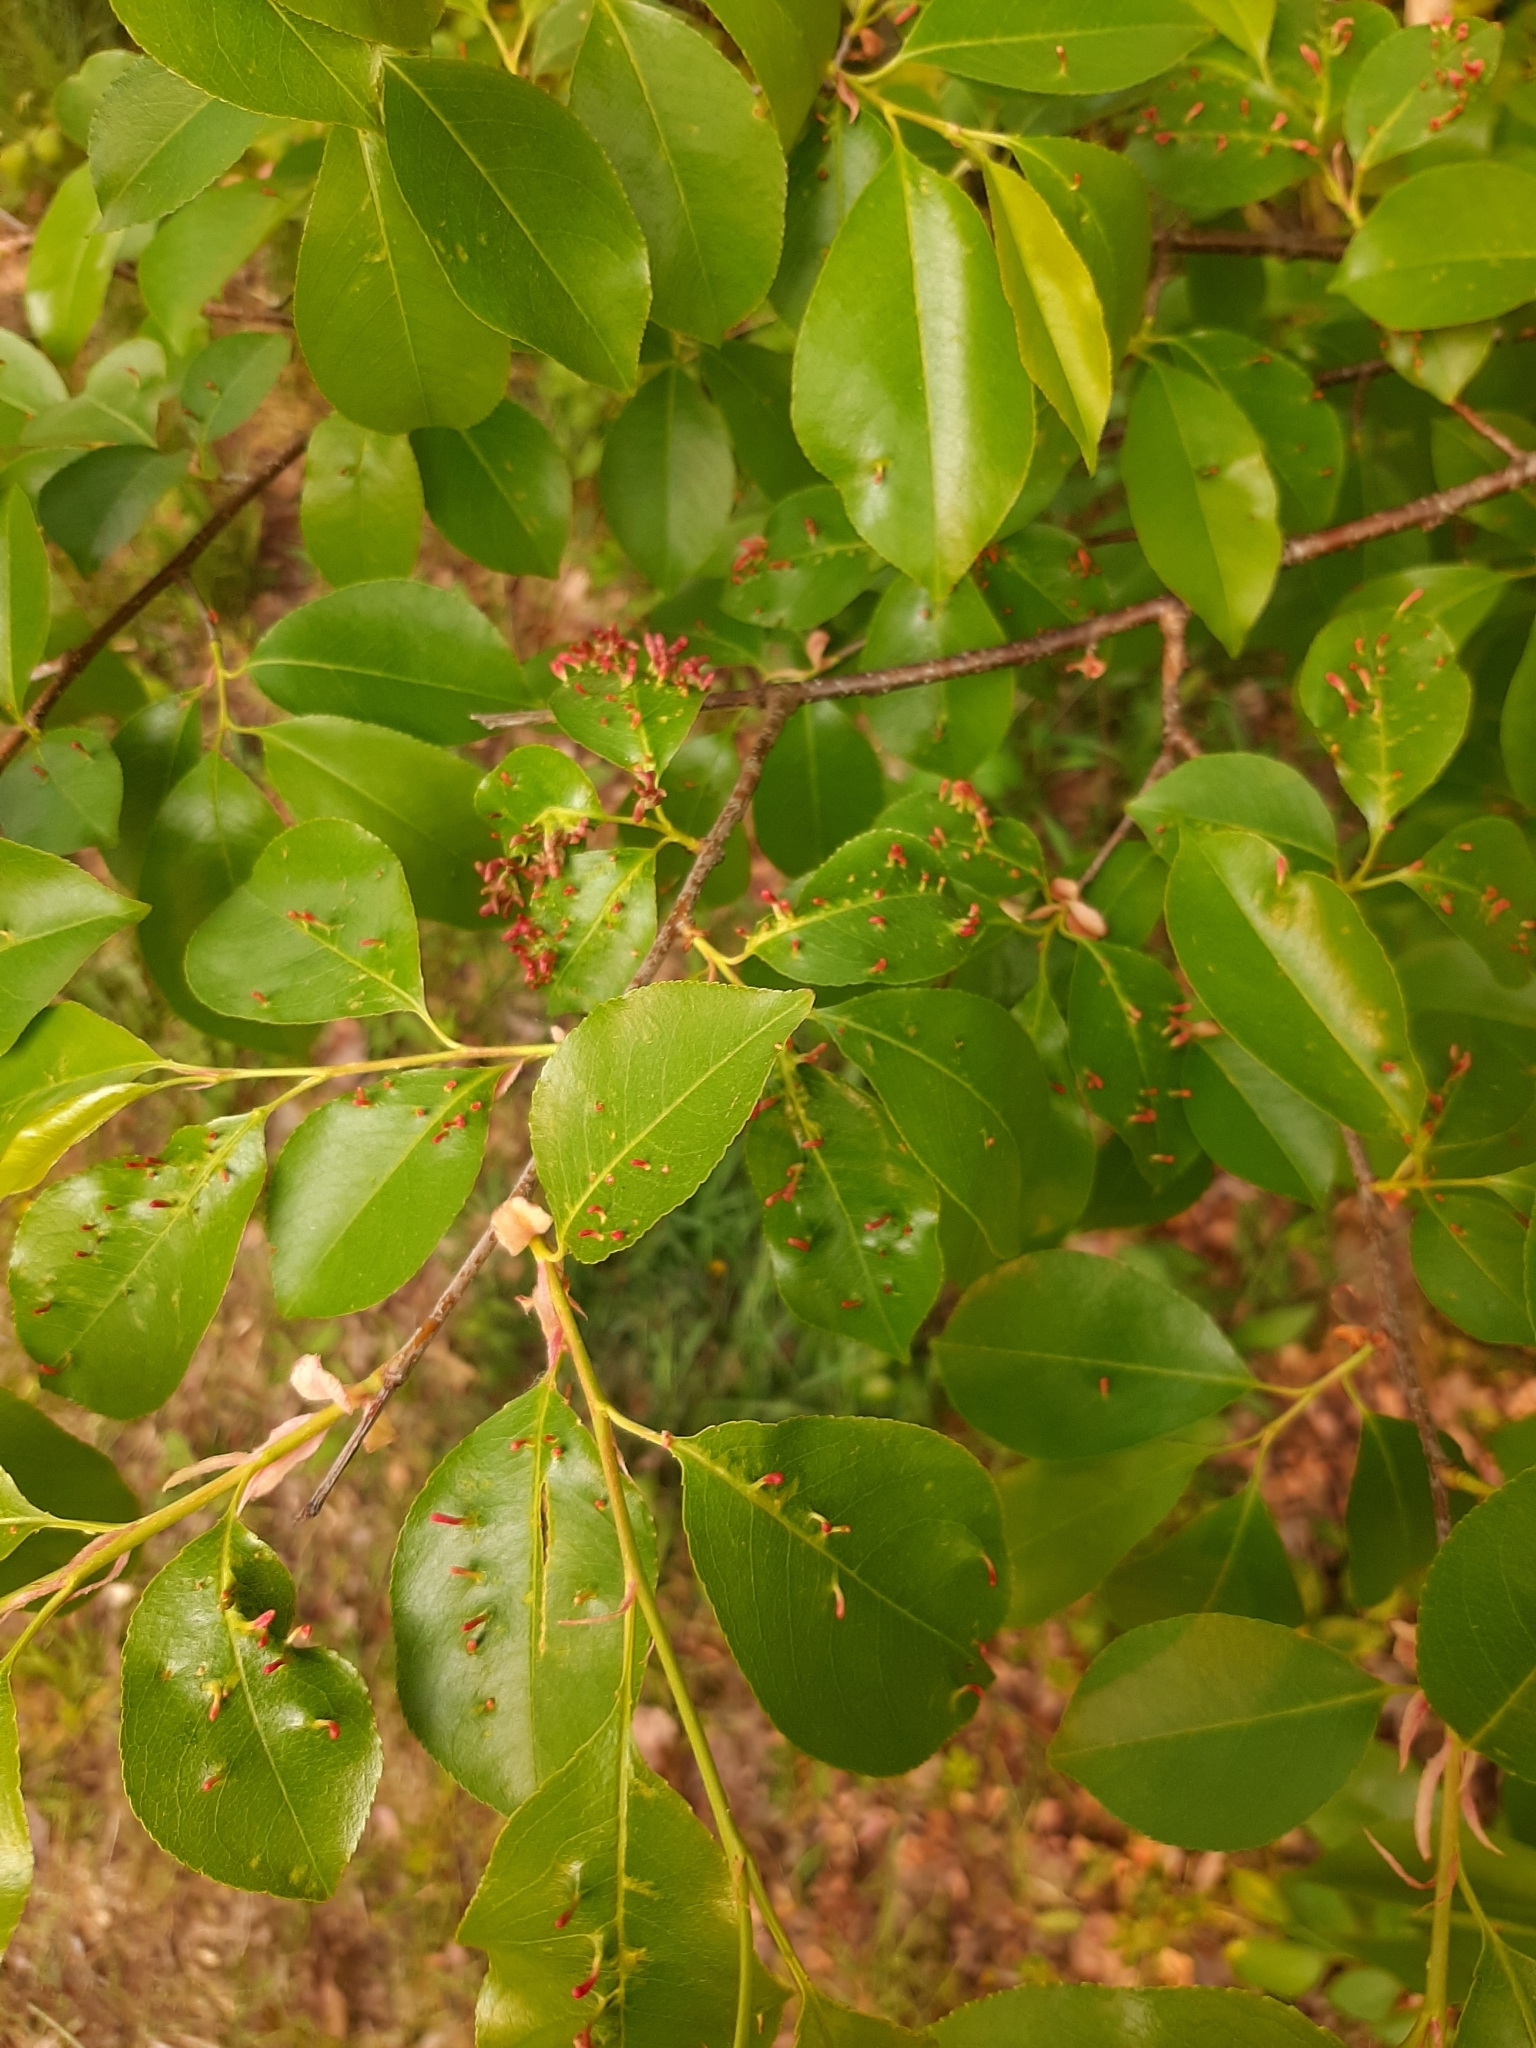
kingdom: Animalia
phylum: Arthropoda
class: Arachnida
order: Trombidiformes
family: Eriophyidae
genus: Eriophyes
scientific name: Eriophyes
